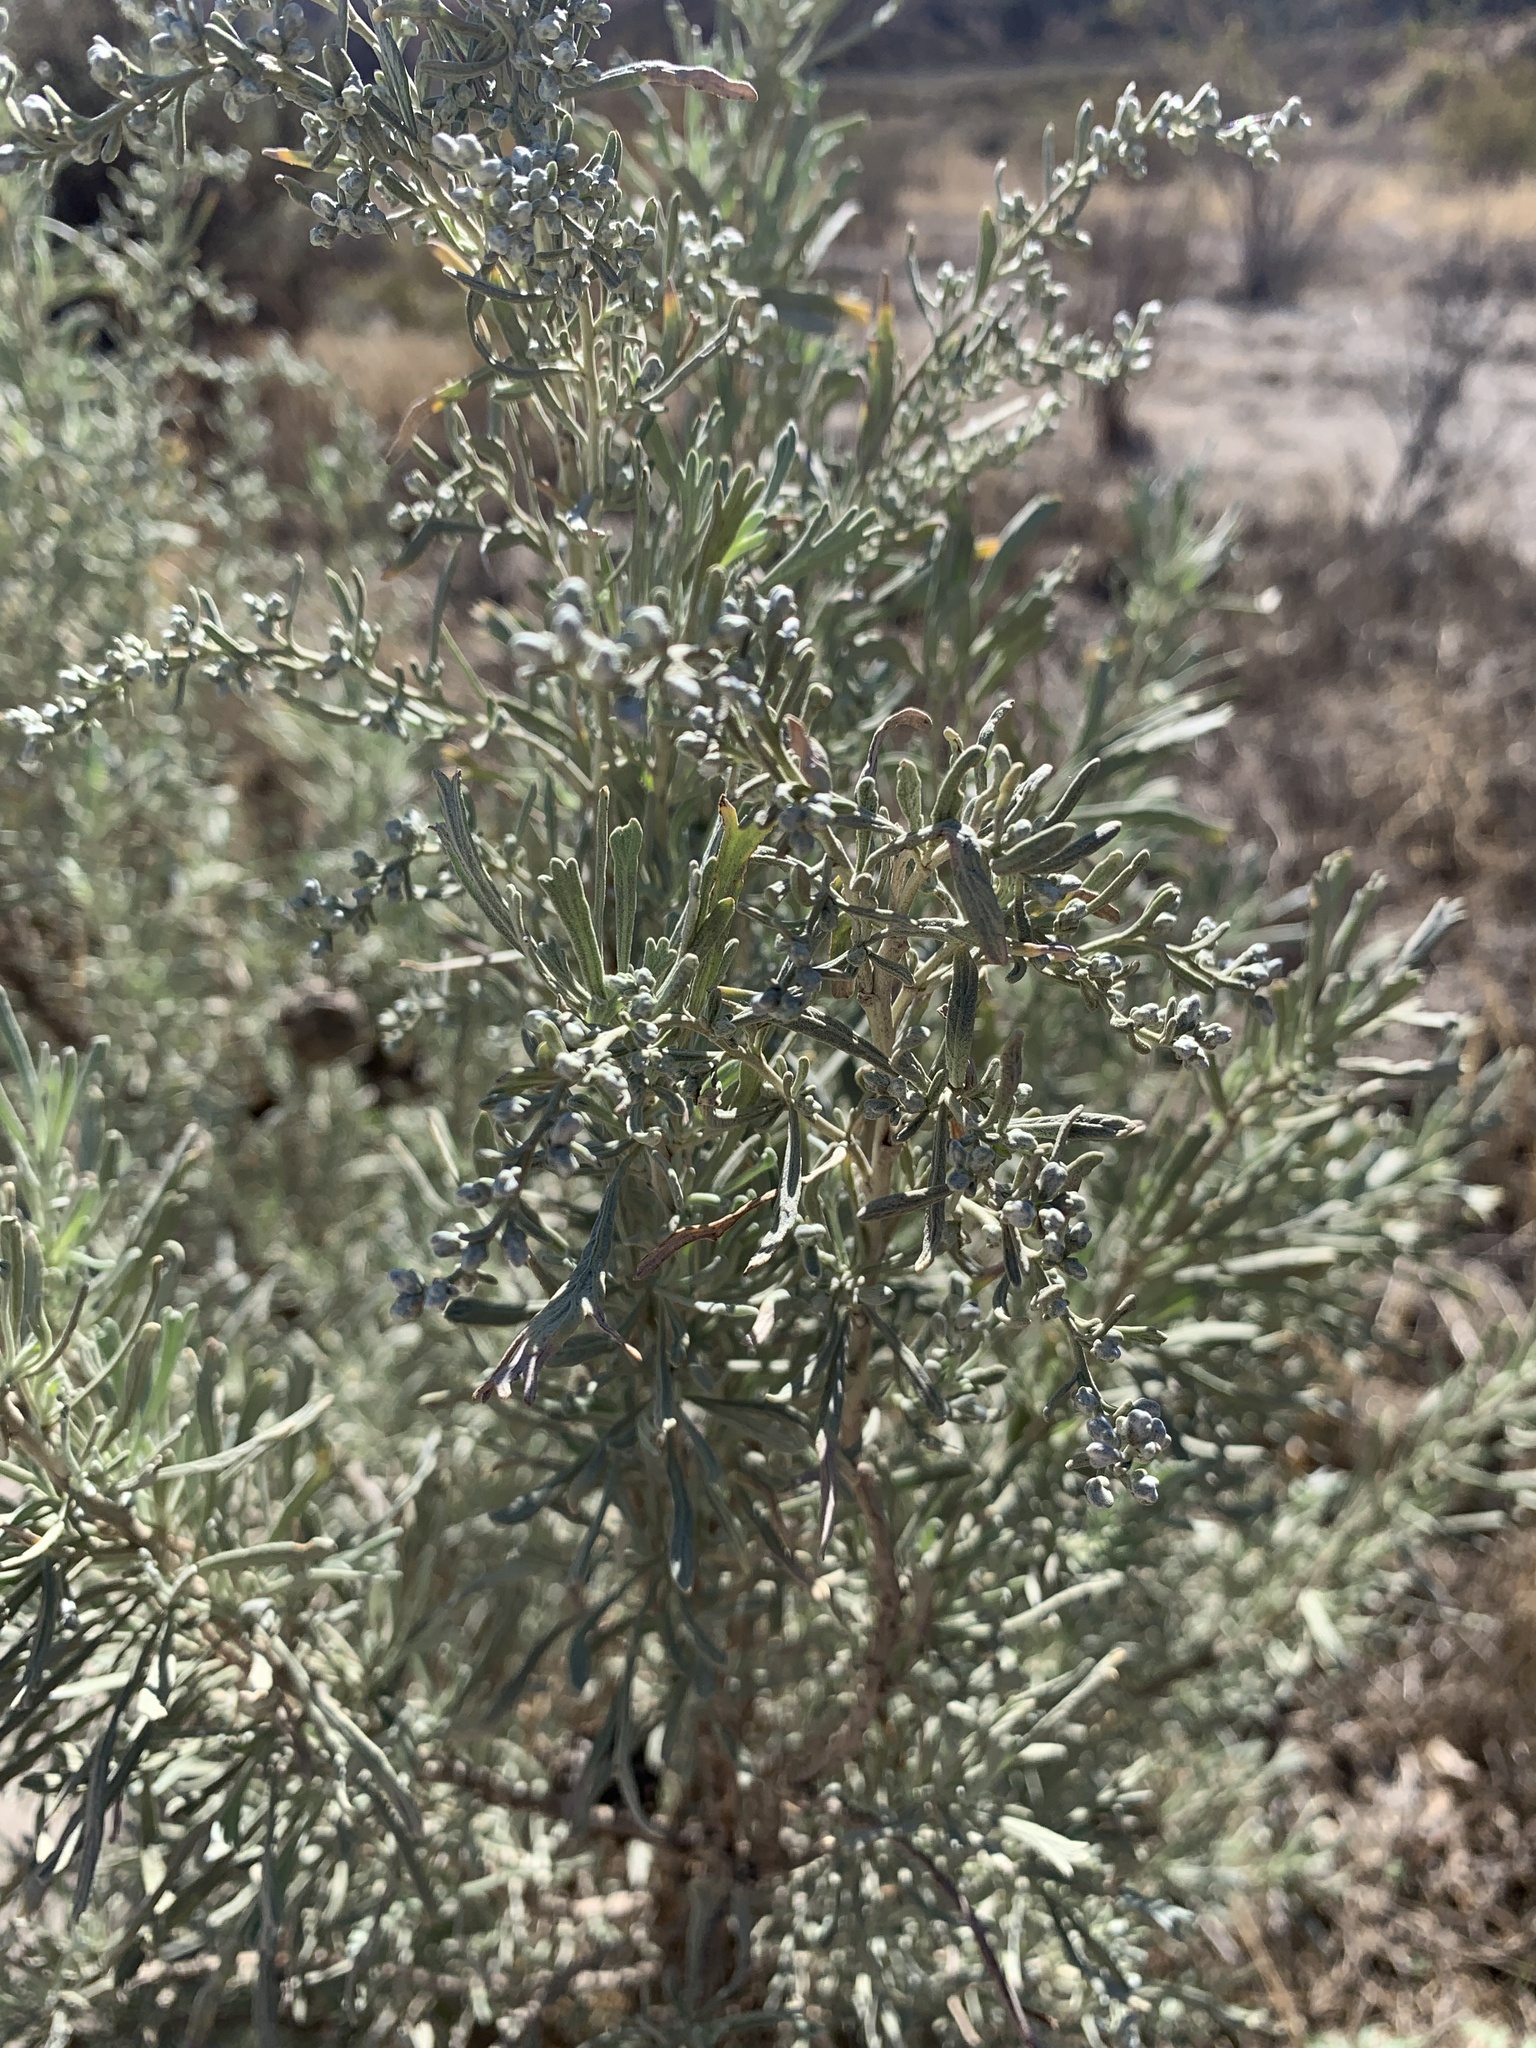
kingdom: Plantae
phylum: Tracheophyta
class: Magnoliopsida
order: Asterales
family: Asteraceae
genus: Artemisia
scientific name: Artemisia tridentata
